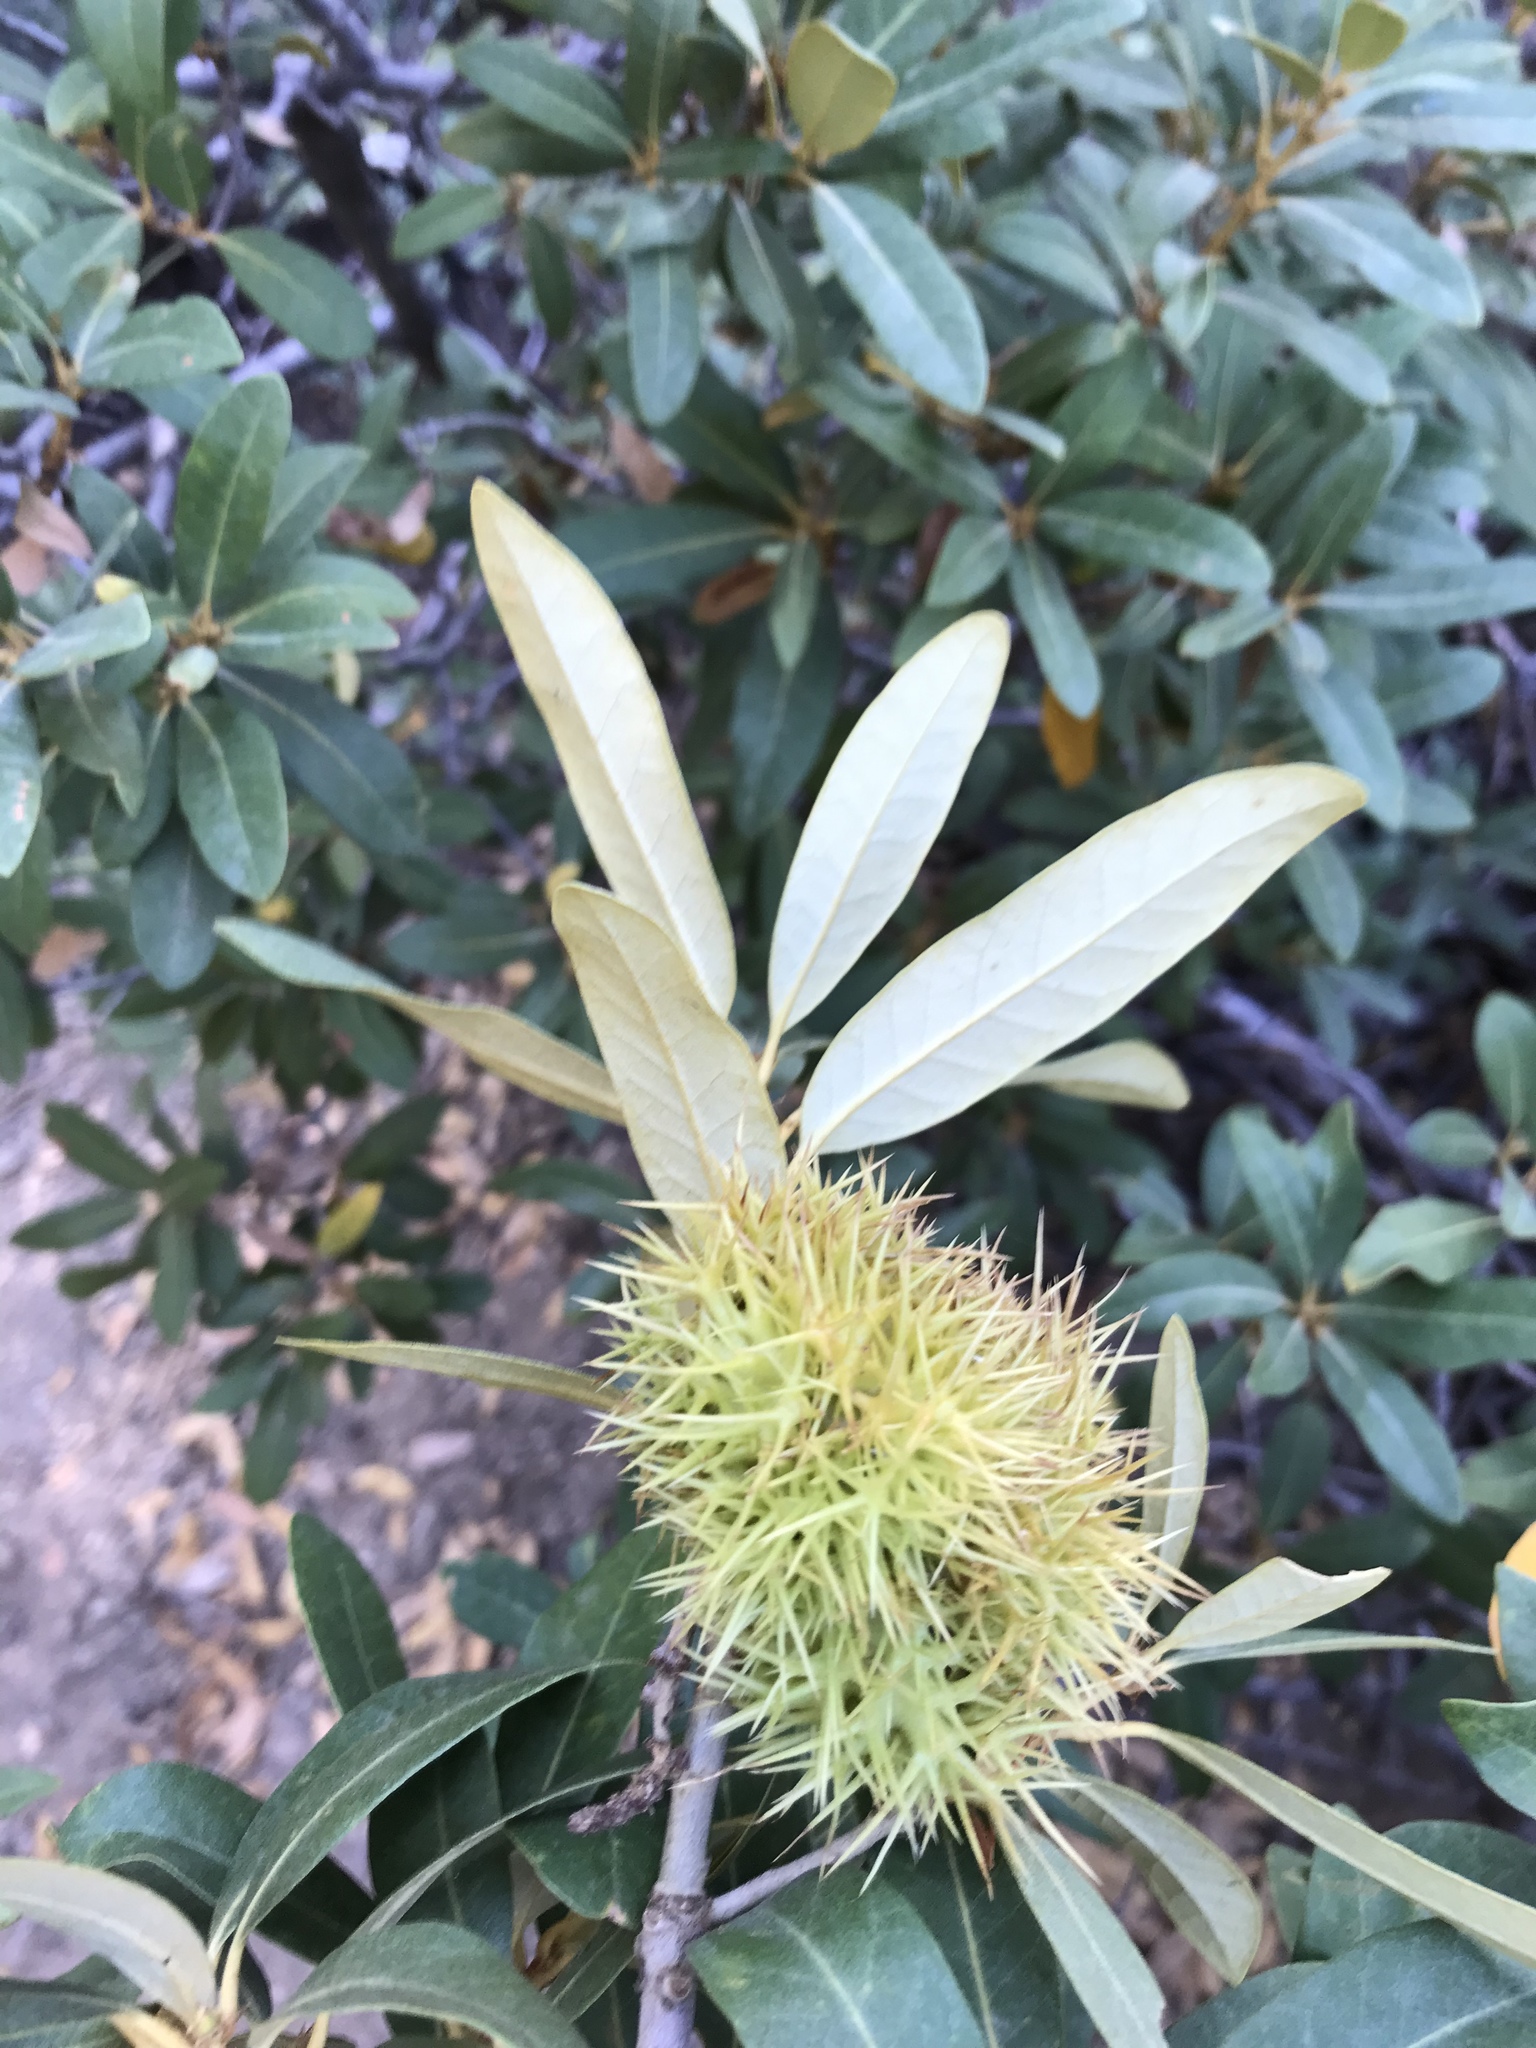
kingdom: Plantae
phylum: Tracheophyta
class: Magnoliopsida
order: Fagales
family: Fagaceae
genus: Chrysolepis
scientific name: Chrysolepis sempervirens
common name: Bush chinquapin
